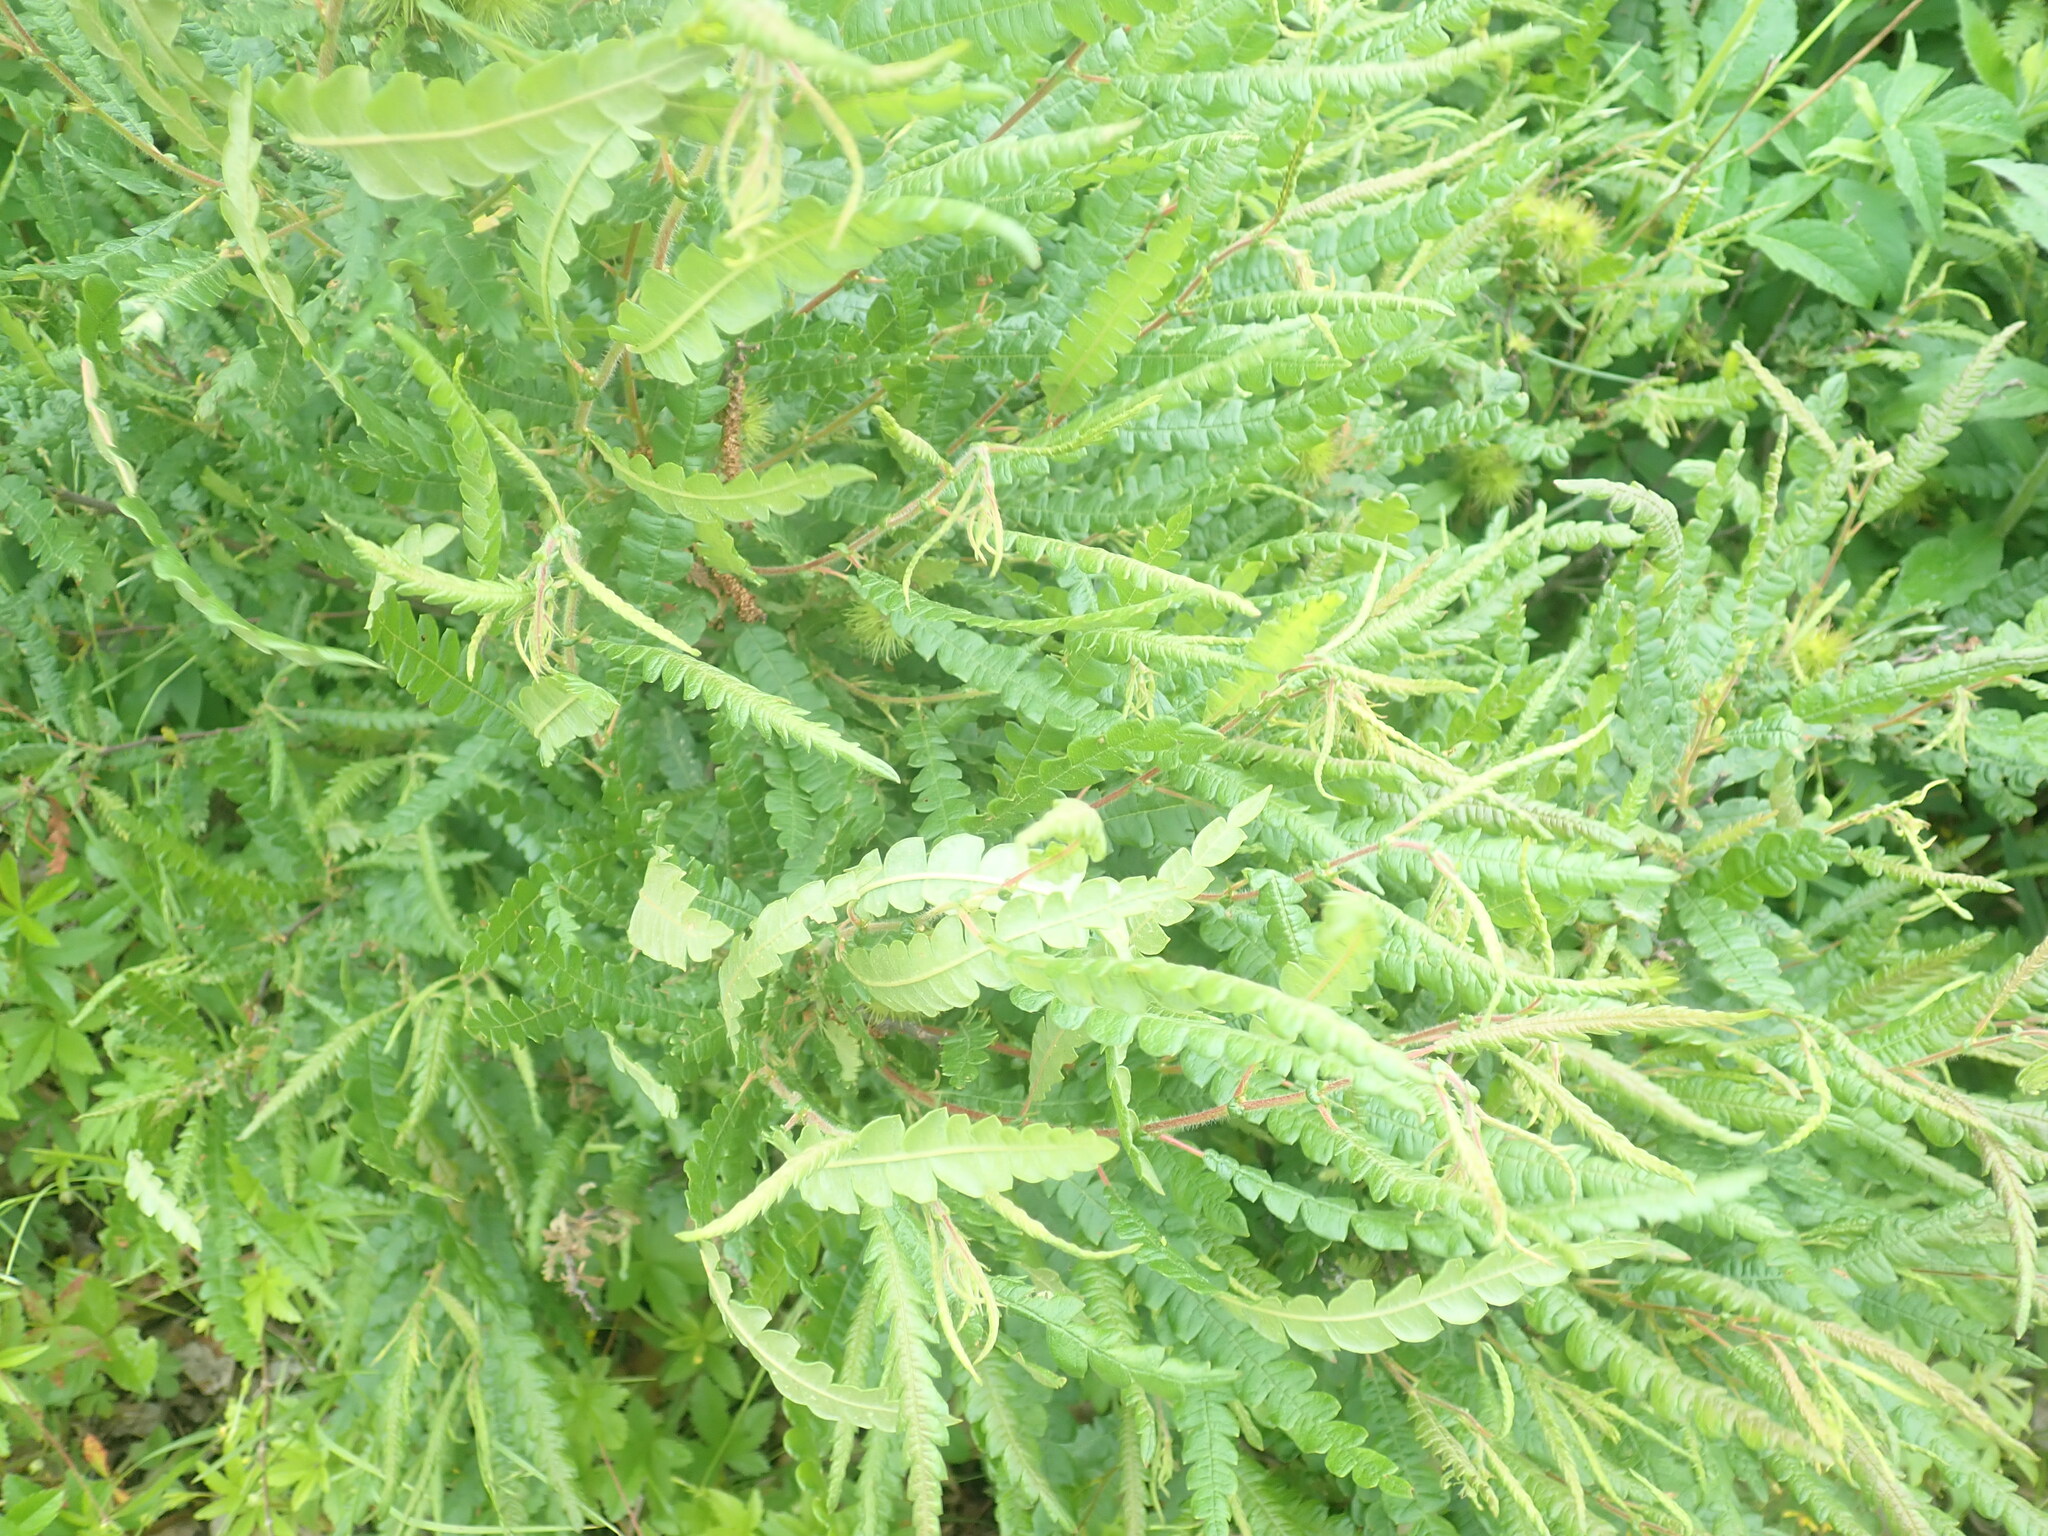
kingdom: Plantae
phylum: Tracheophyta
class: Magnoliopsida
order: Fagales
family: Myricaceae
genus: Comptonia
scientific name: Comptonia peregrina
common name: Sweet-fern
